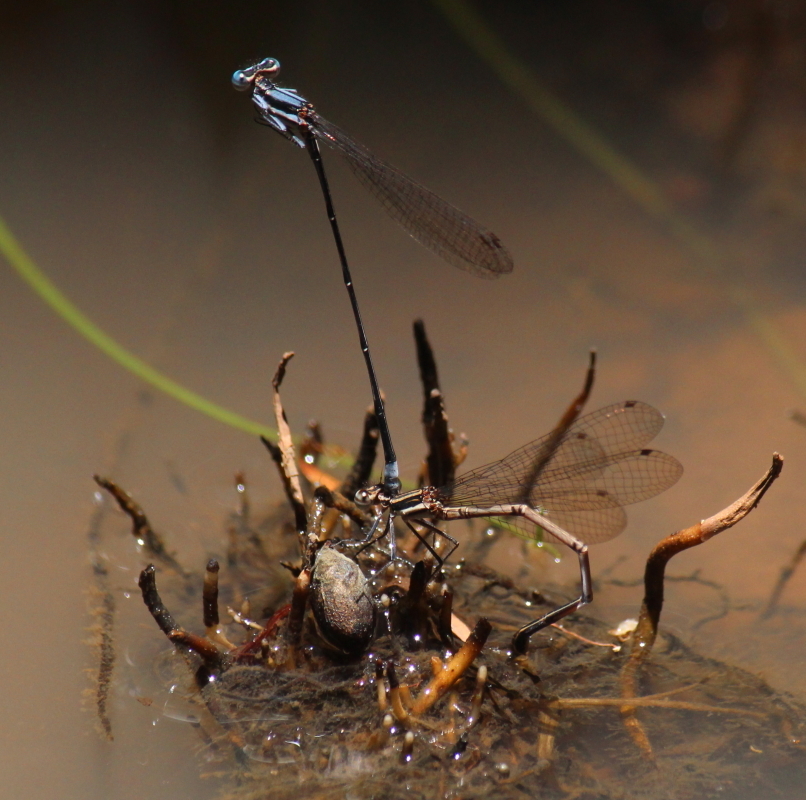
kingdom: Animalia
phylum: Arthropoda
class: Insecta
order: Odonata
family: Platycnemididae
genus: Elattoneura
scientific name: Elattoneura glauca
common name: Common threadtail
